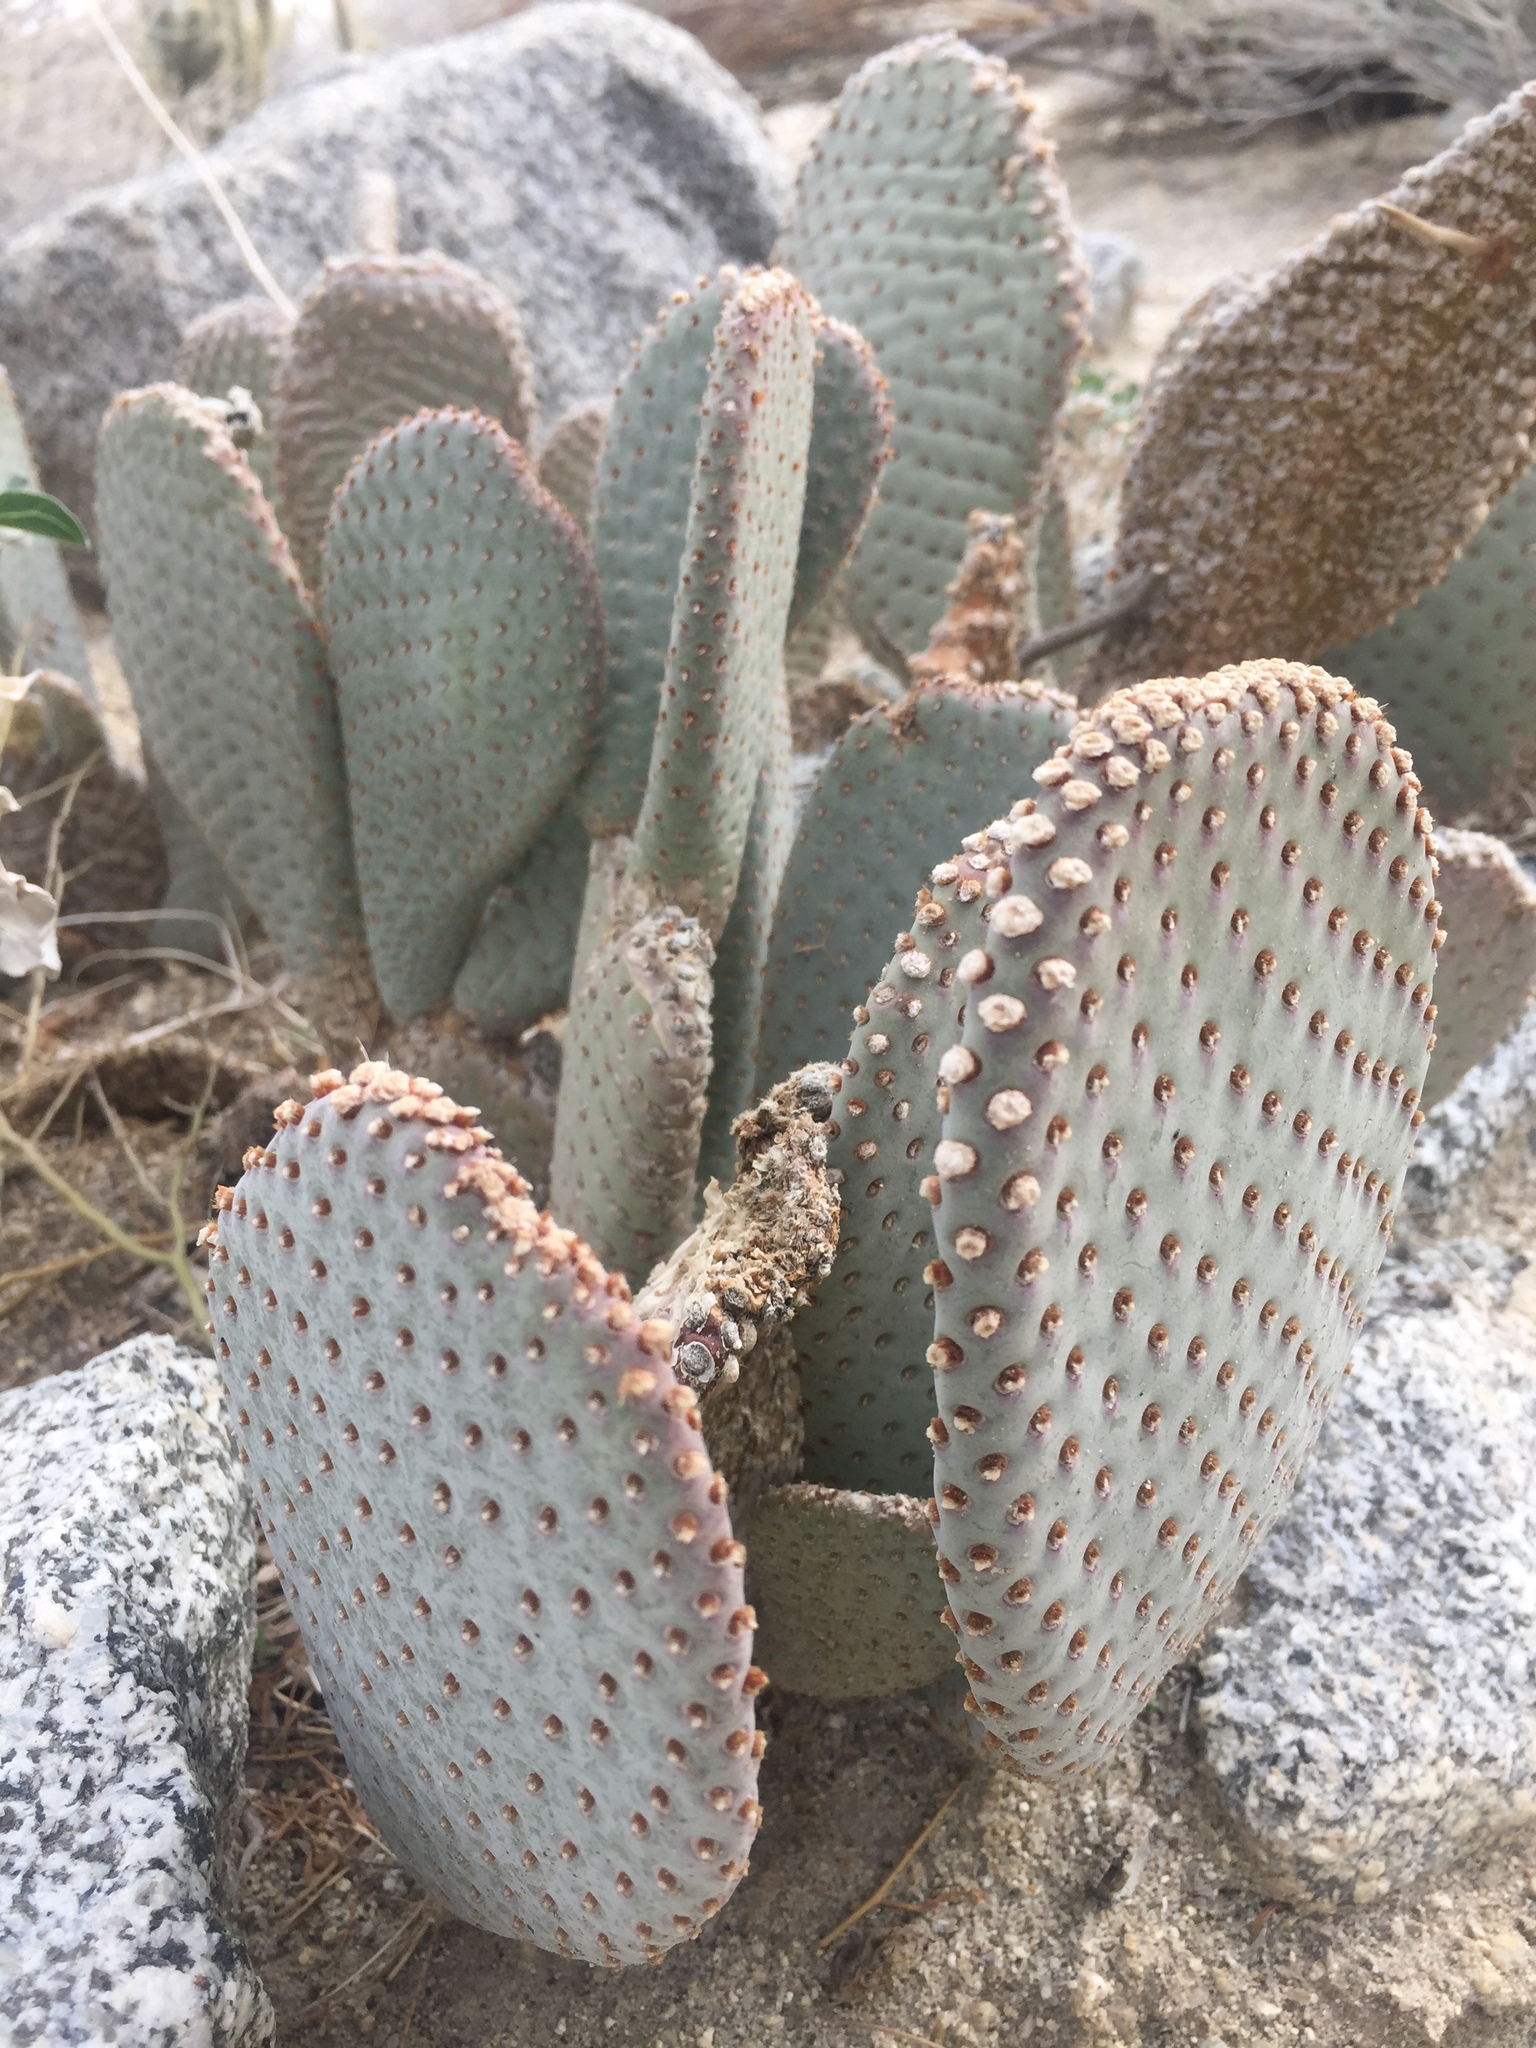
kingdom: Plantae
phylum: Tracheophyta
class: Magnoliopsida
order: Caryophyllales
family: Cactaceae
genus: Opuntia
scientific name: Opuntia basilaris
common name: Beavertail prickly-pear
